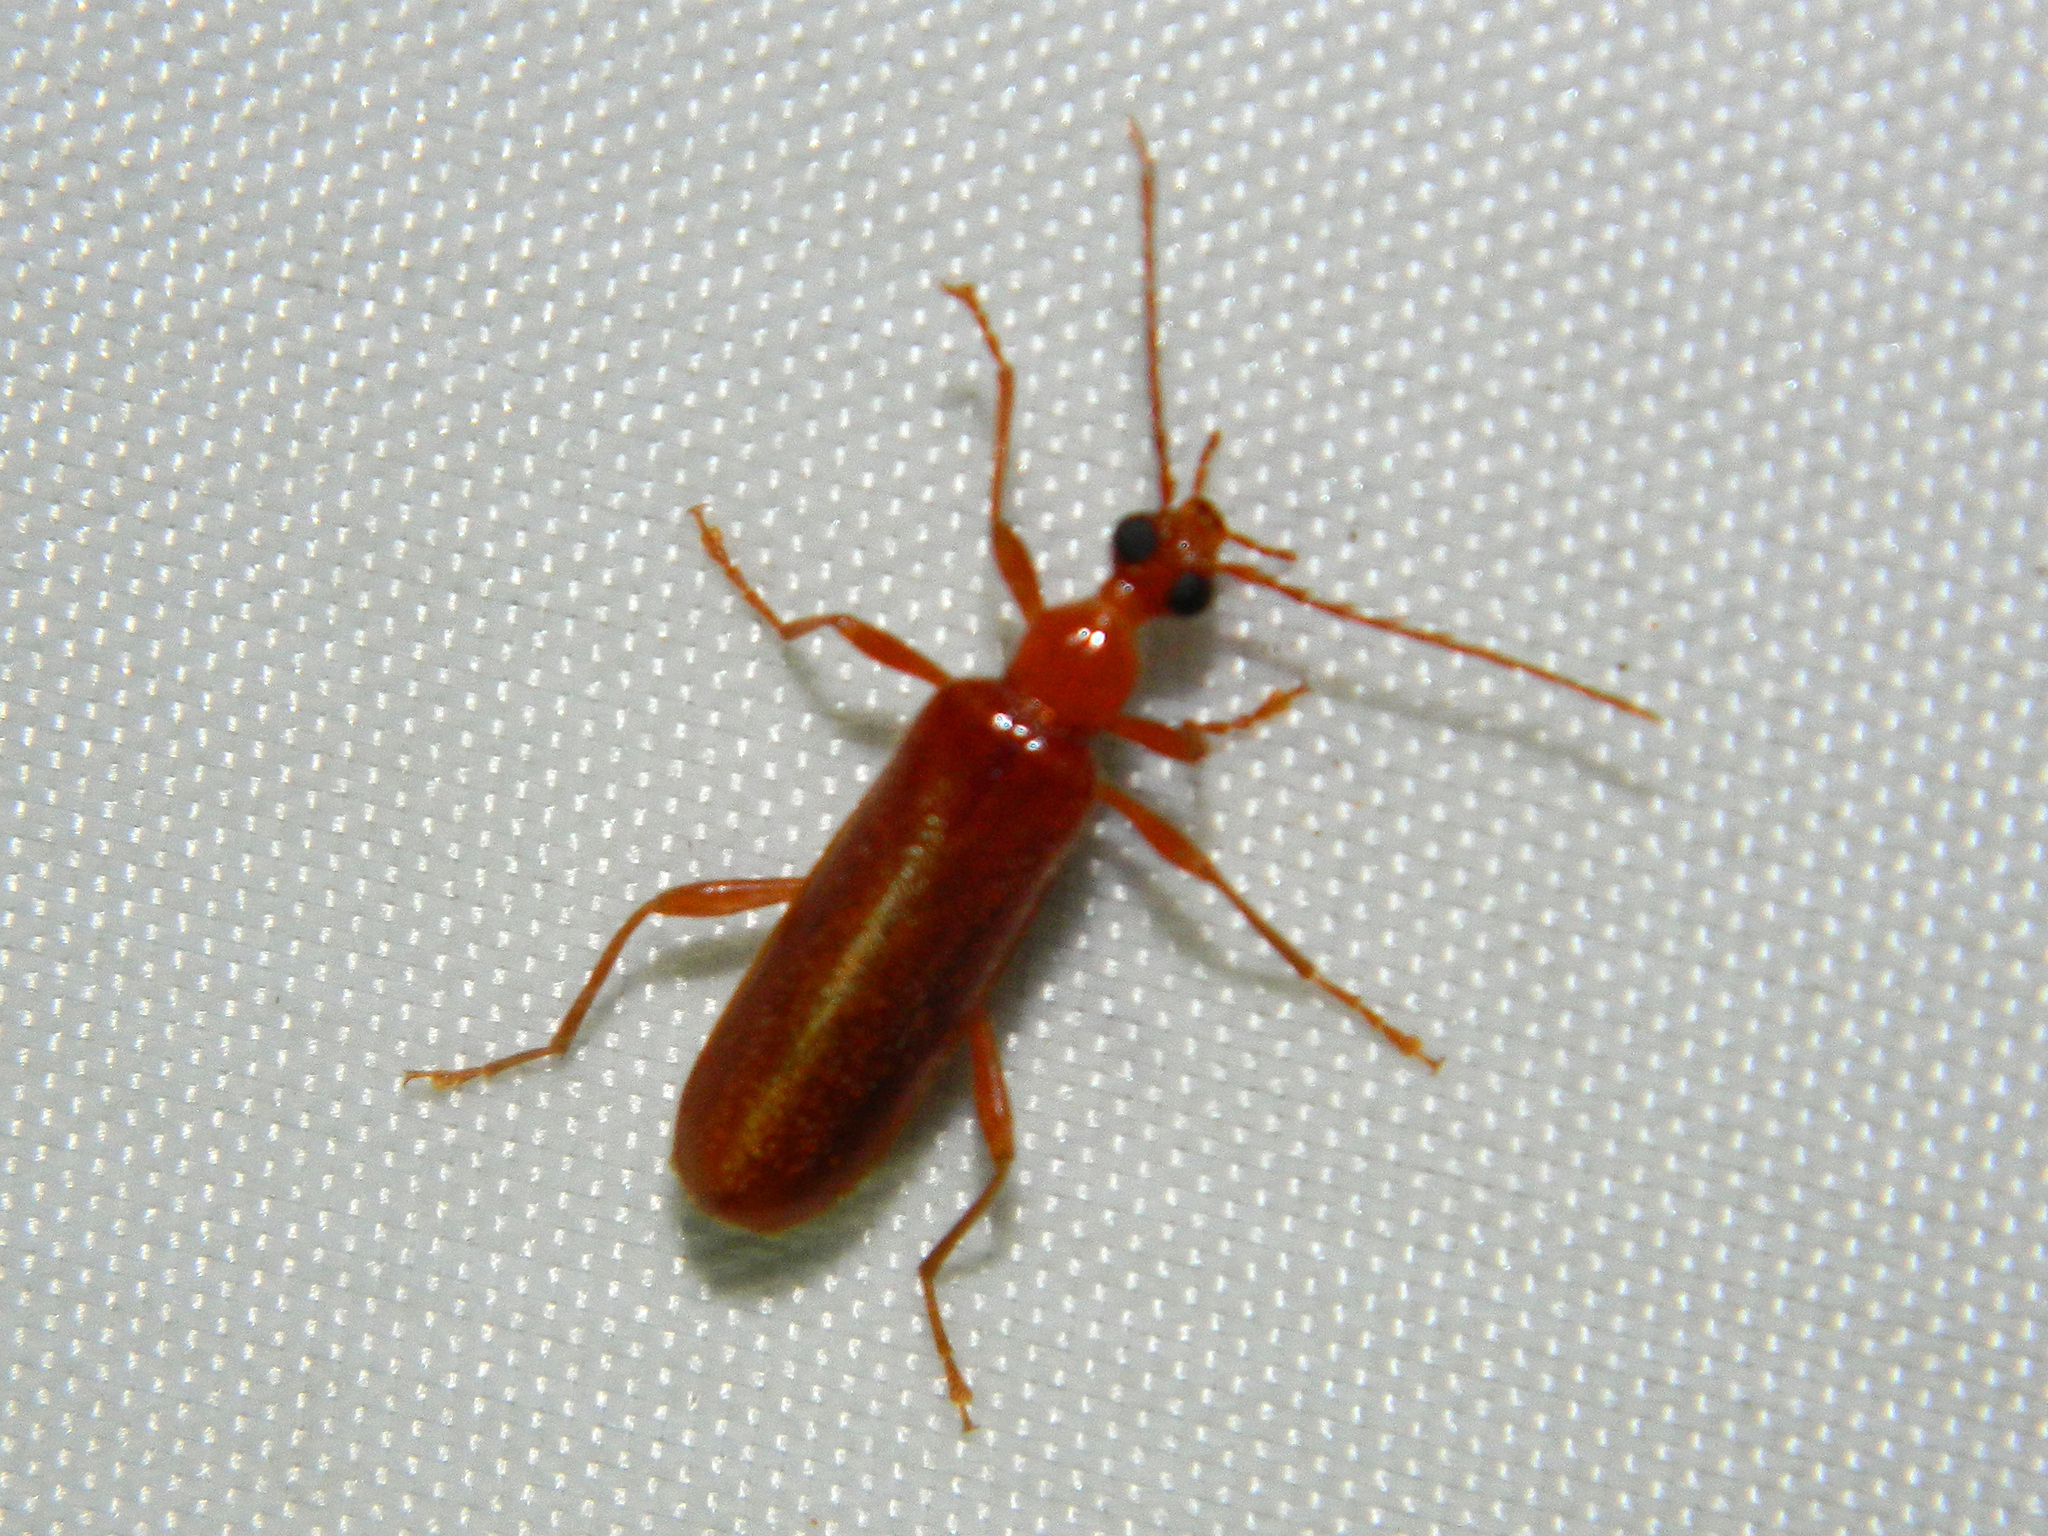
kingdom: Animalia
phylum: Arthropoda
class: Insecta
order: Coleoptera
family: Pyrochroidae
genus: Dendroides
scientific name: Dendroides concolor
